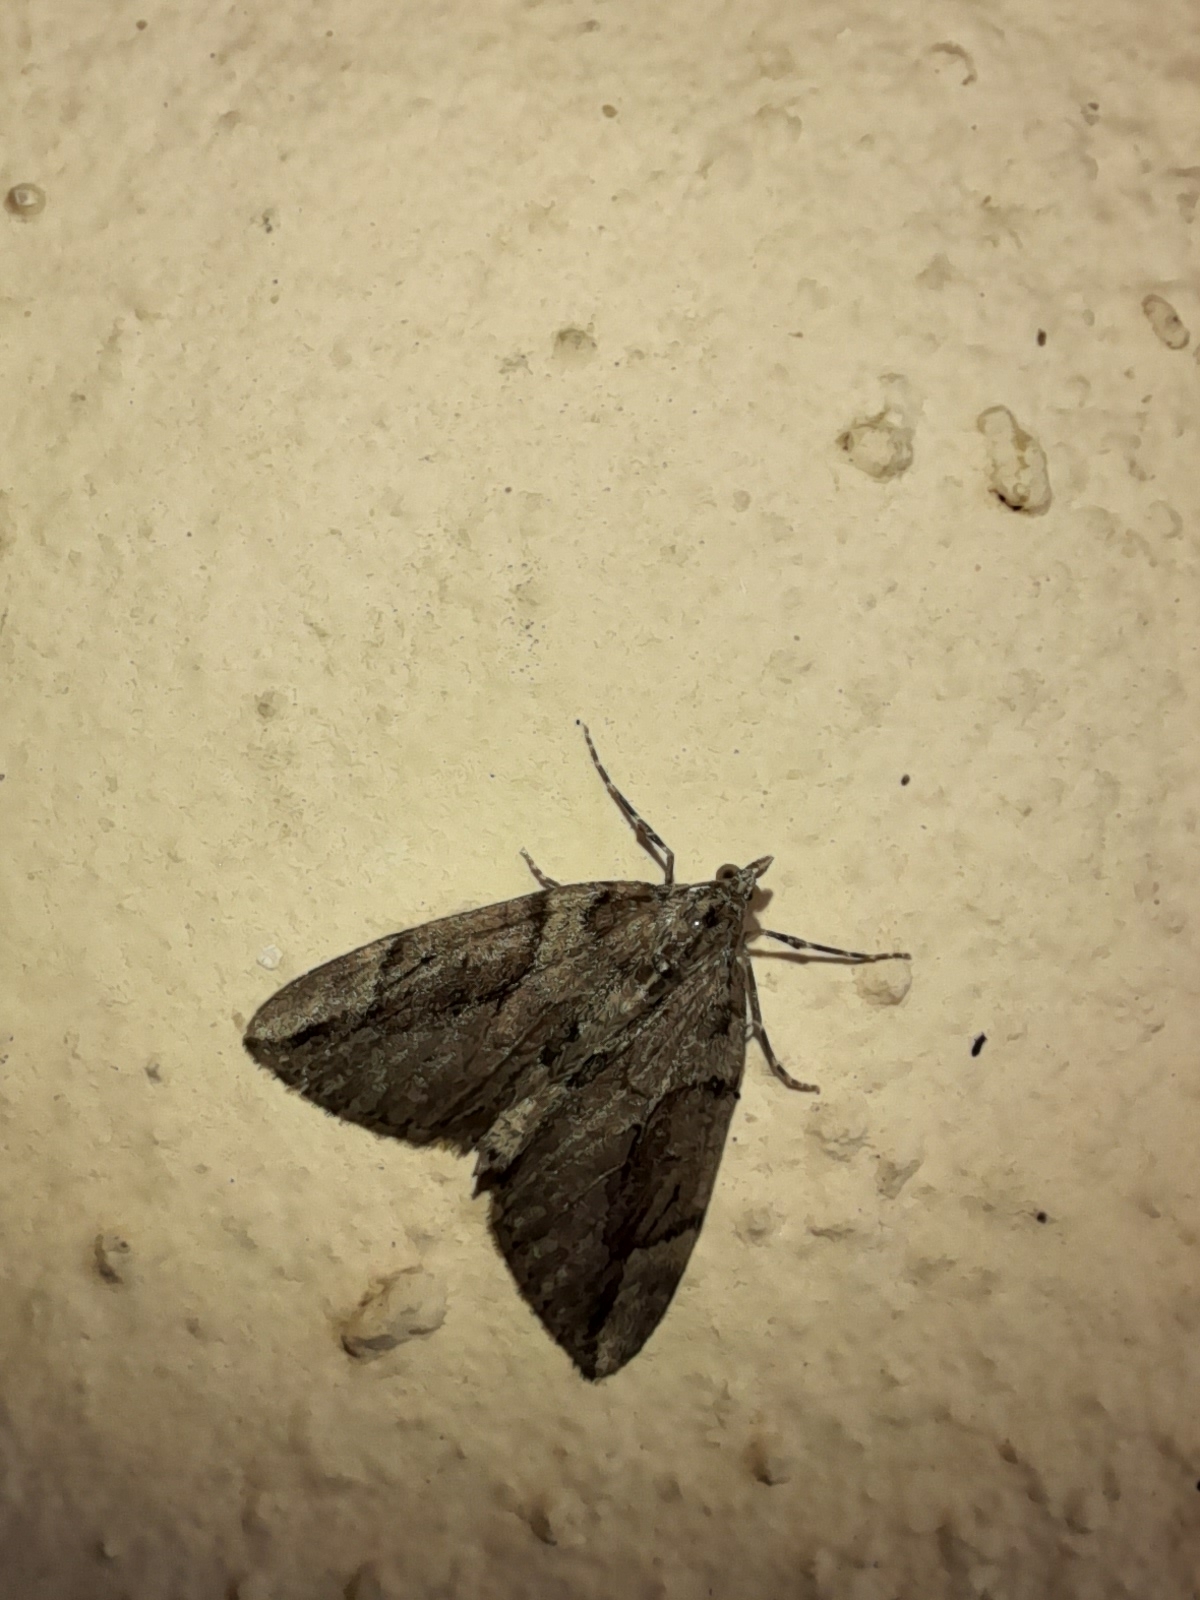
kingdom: Animalia
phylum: Arthropoda
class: Insecta
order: Lepidoptera
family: Geometridae
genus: Thera
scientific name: Thera cupressata
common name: Cypress carpet
